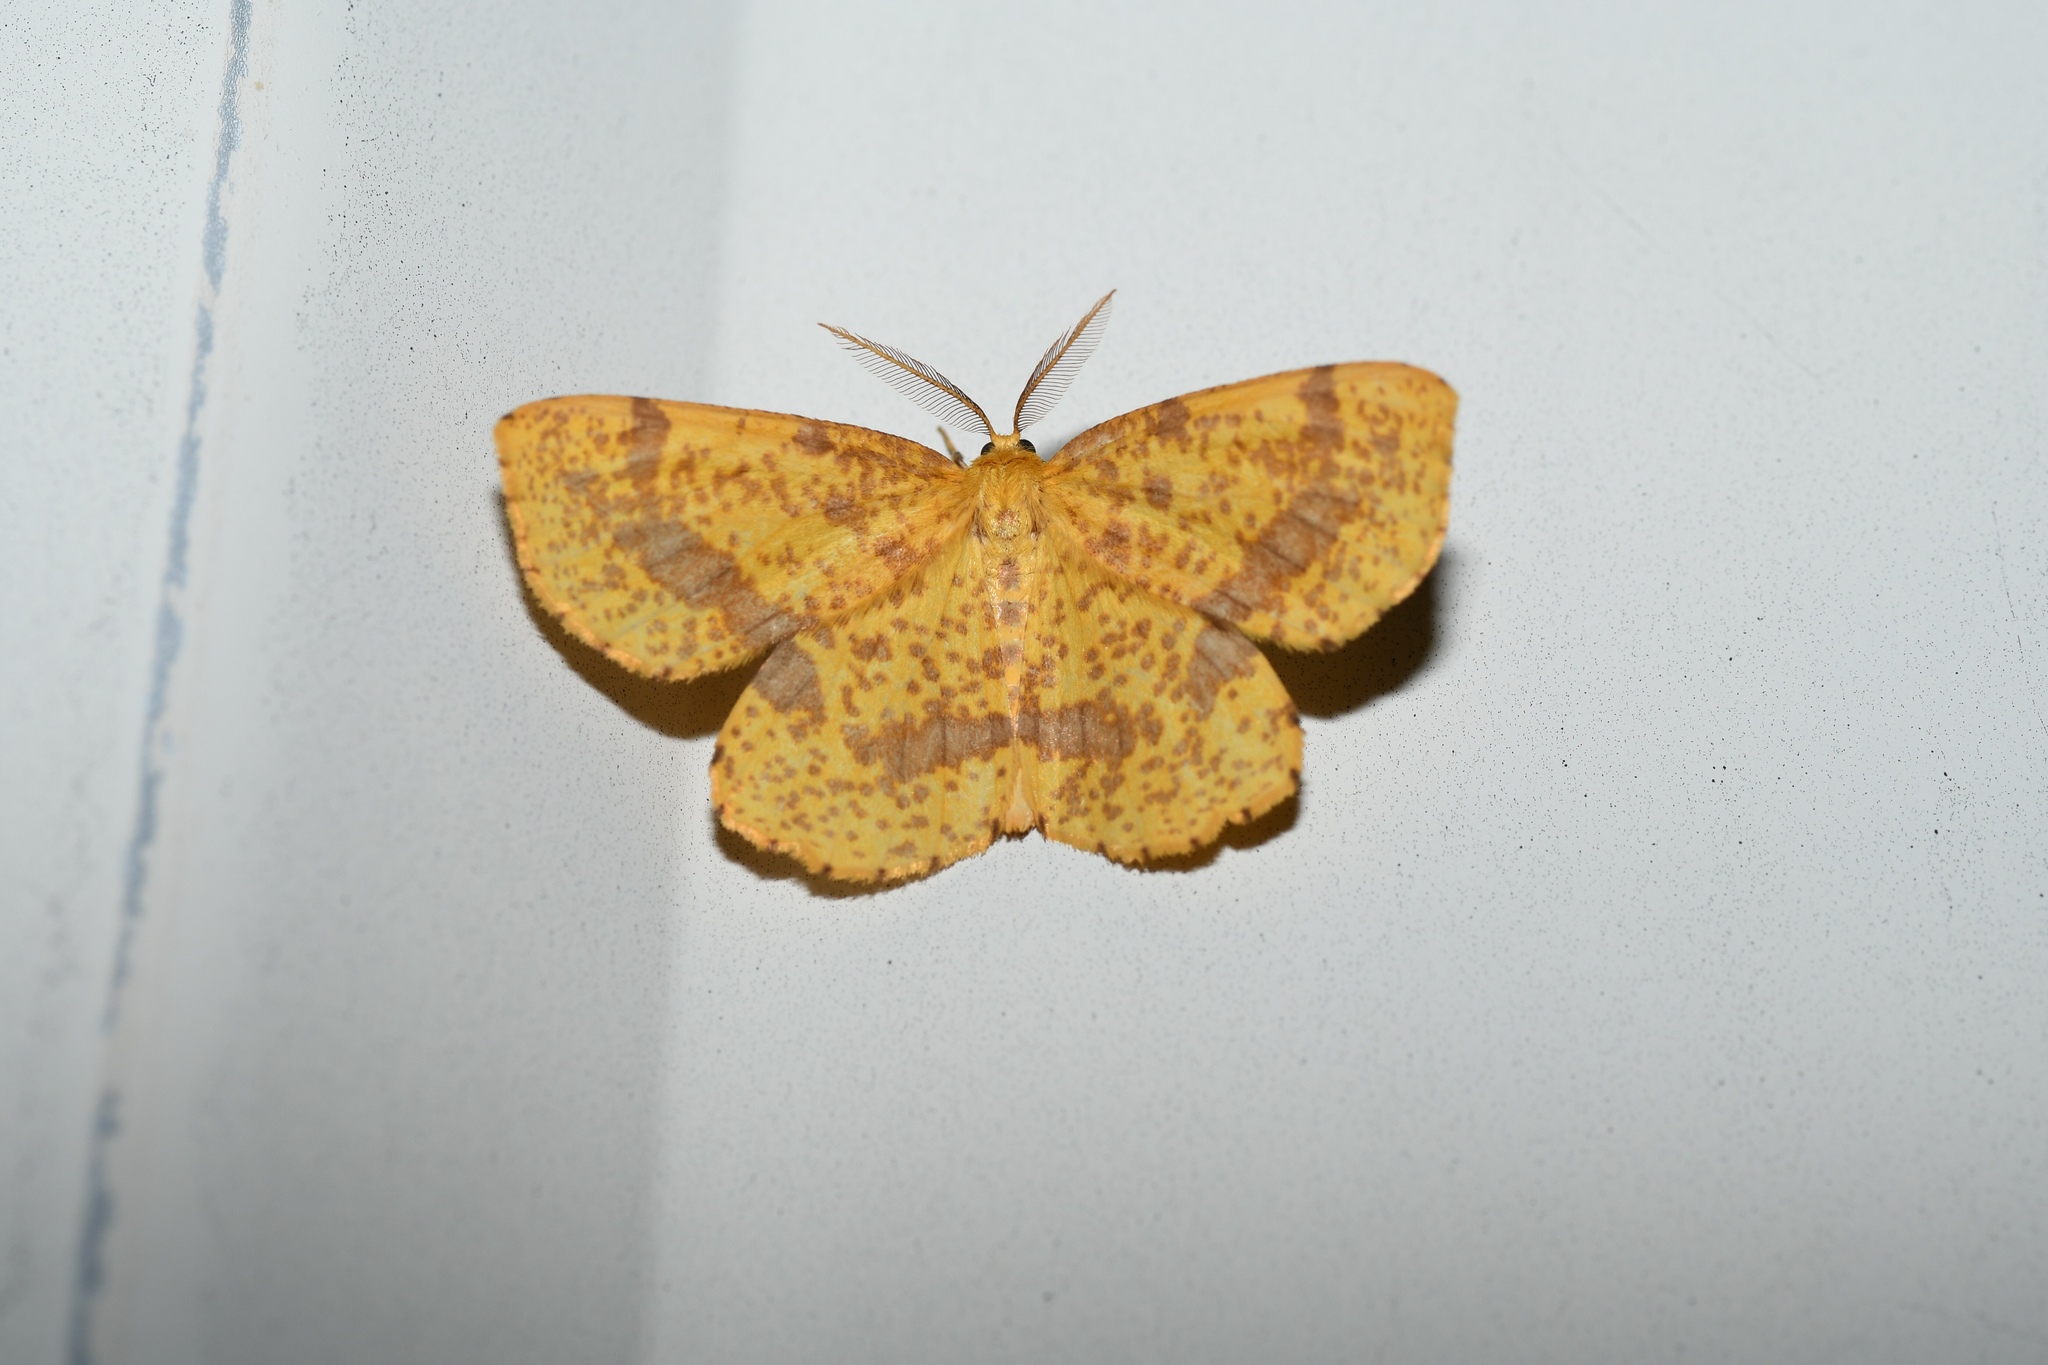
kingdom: Animalia
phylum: Arthropoda
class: Insecta
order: Lepidoptera
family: Geometridae
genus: Xanthotype
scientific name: Xanthotype
